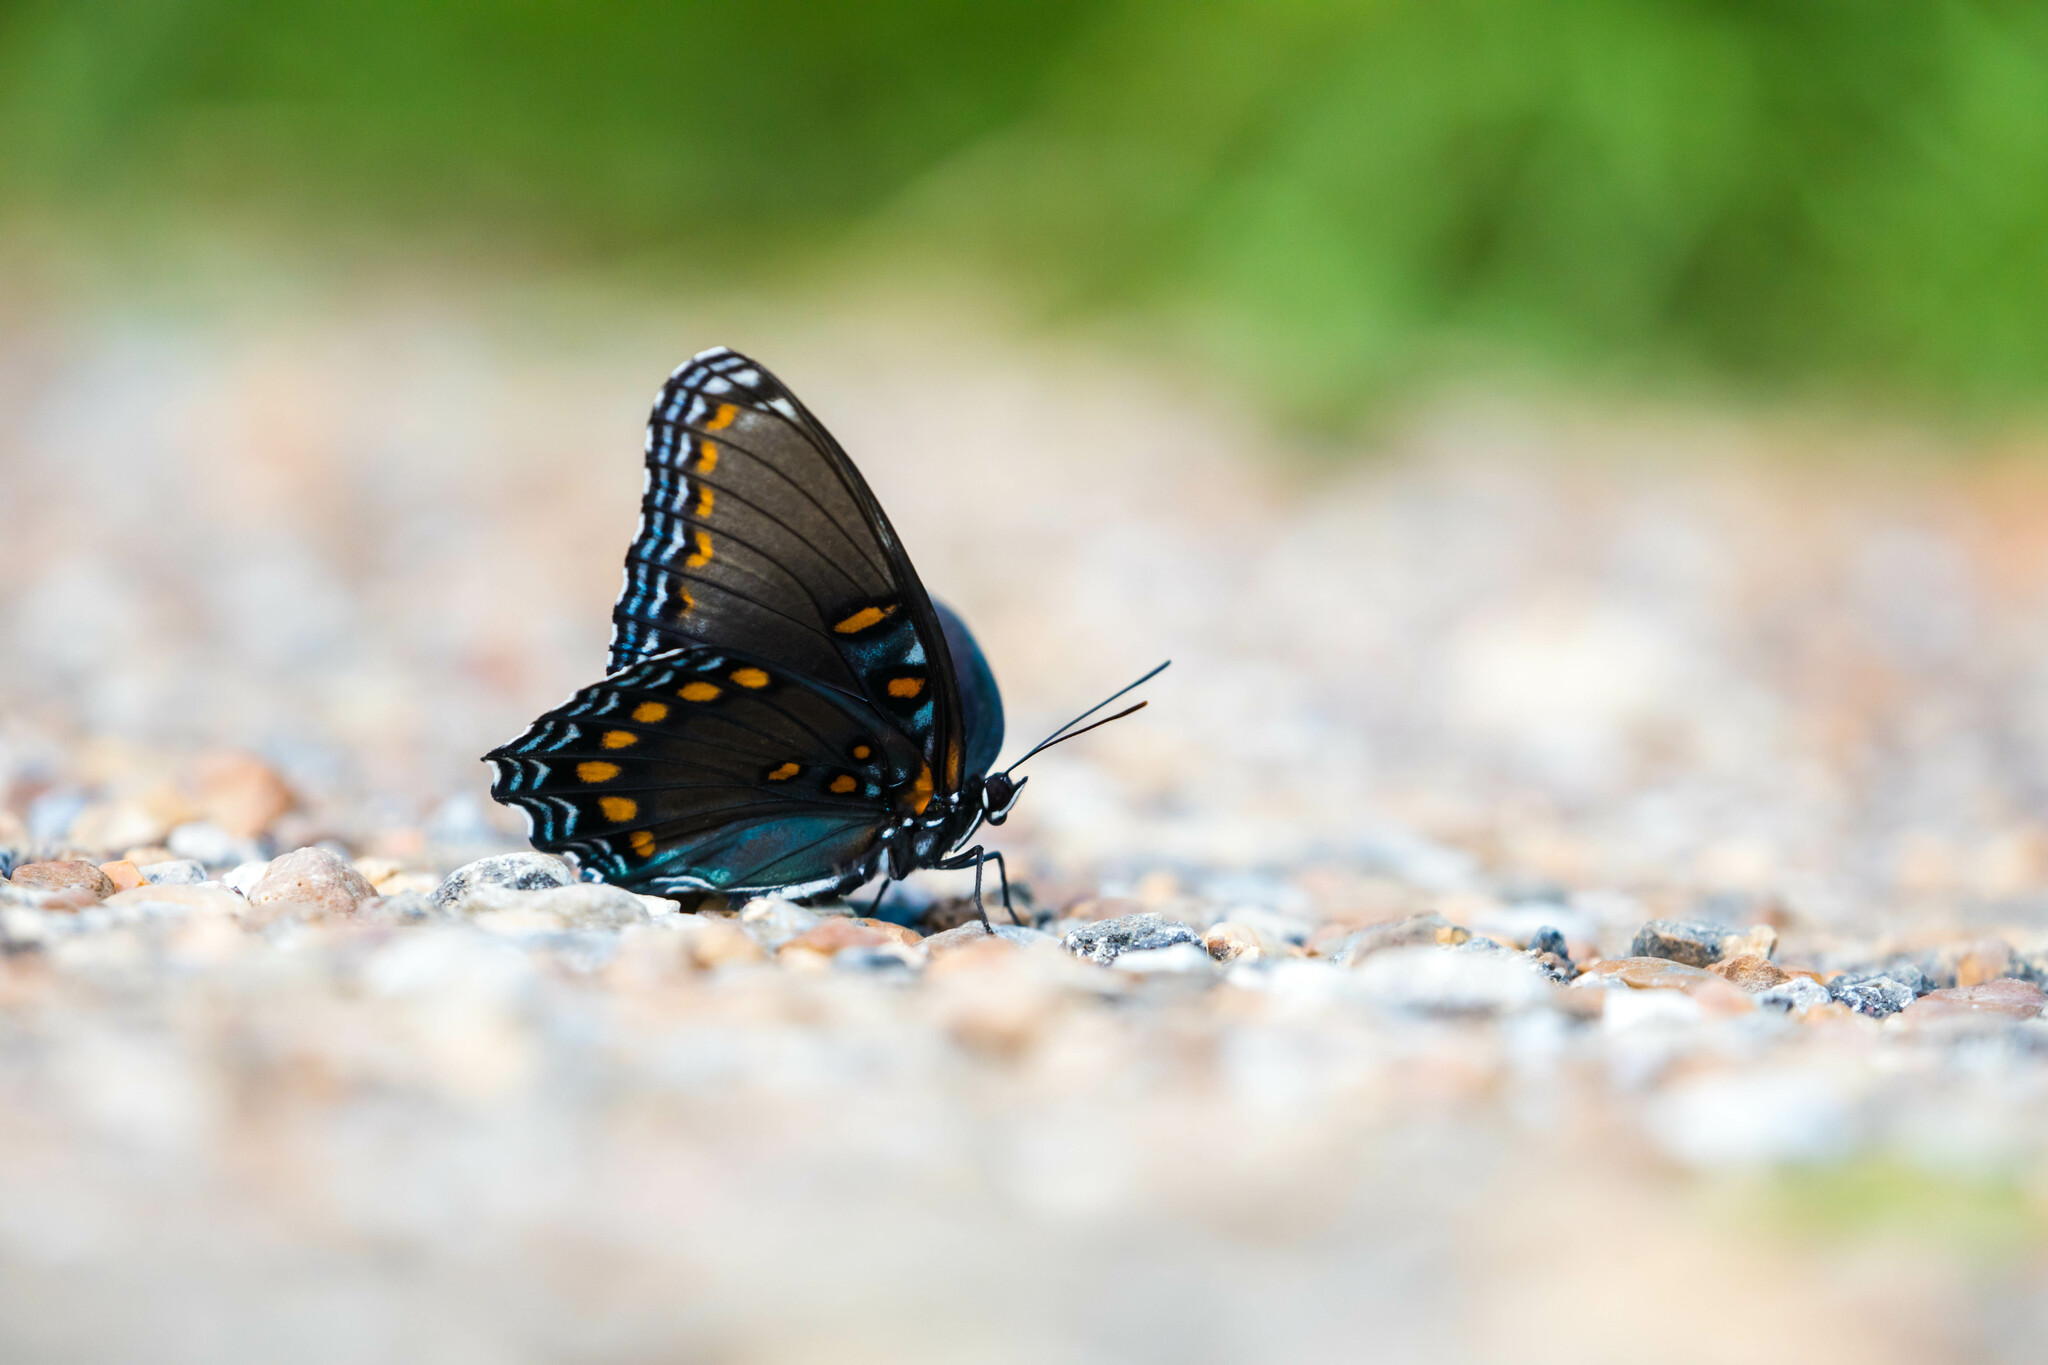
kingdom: Animalia
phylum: Arthropoda
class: Insecta
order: Lepidoptera
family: Nymphalidae
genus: Limenitis
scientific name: Limenitis astyanax
